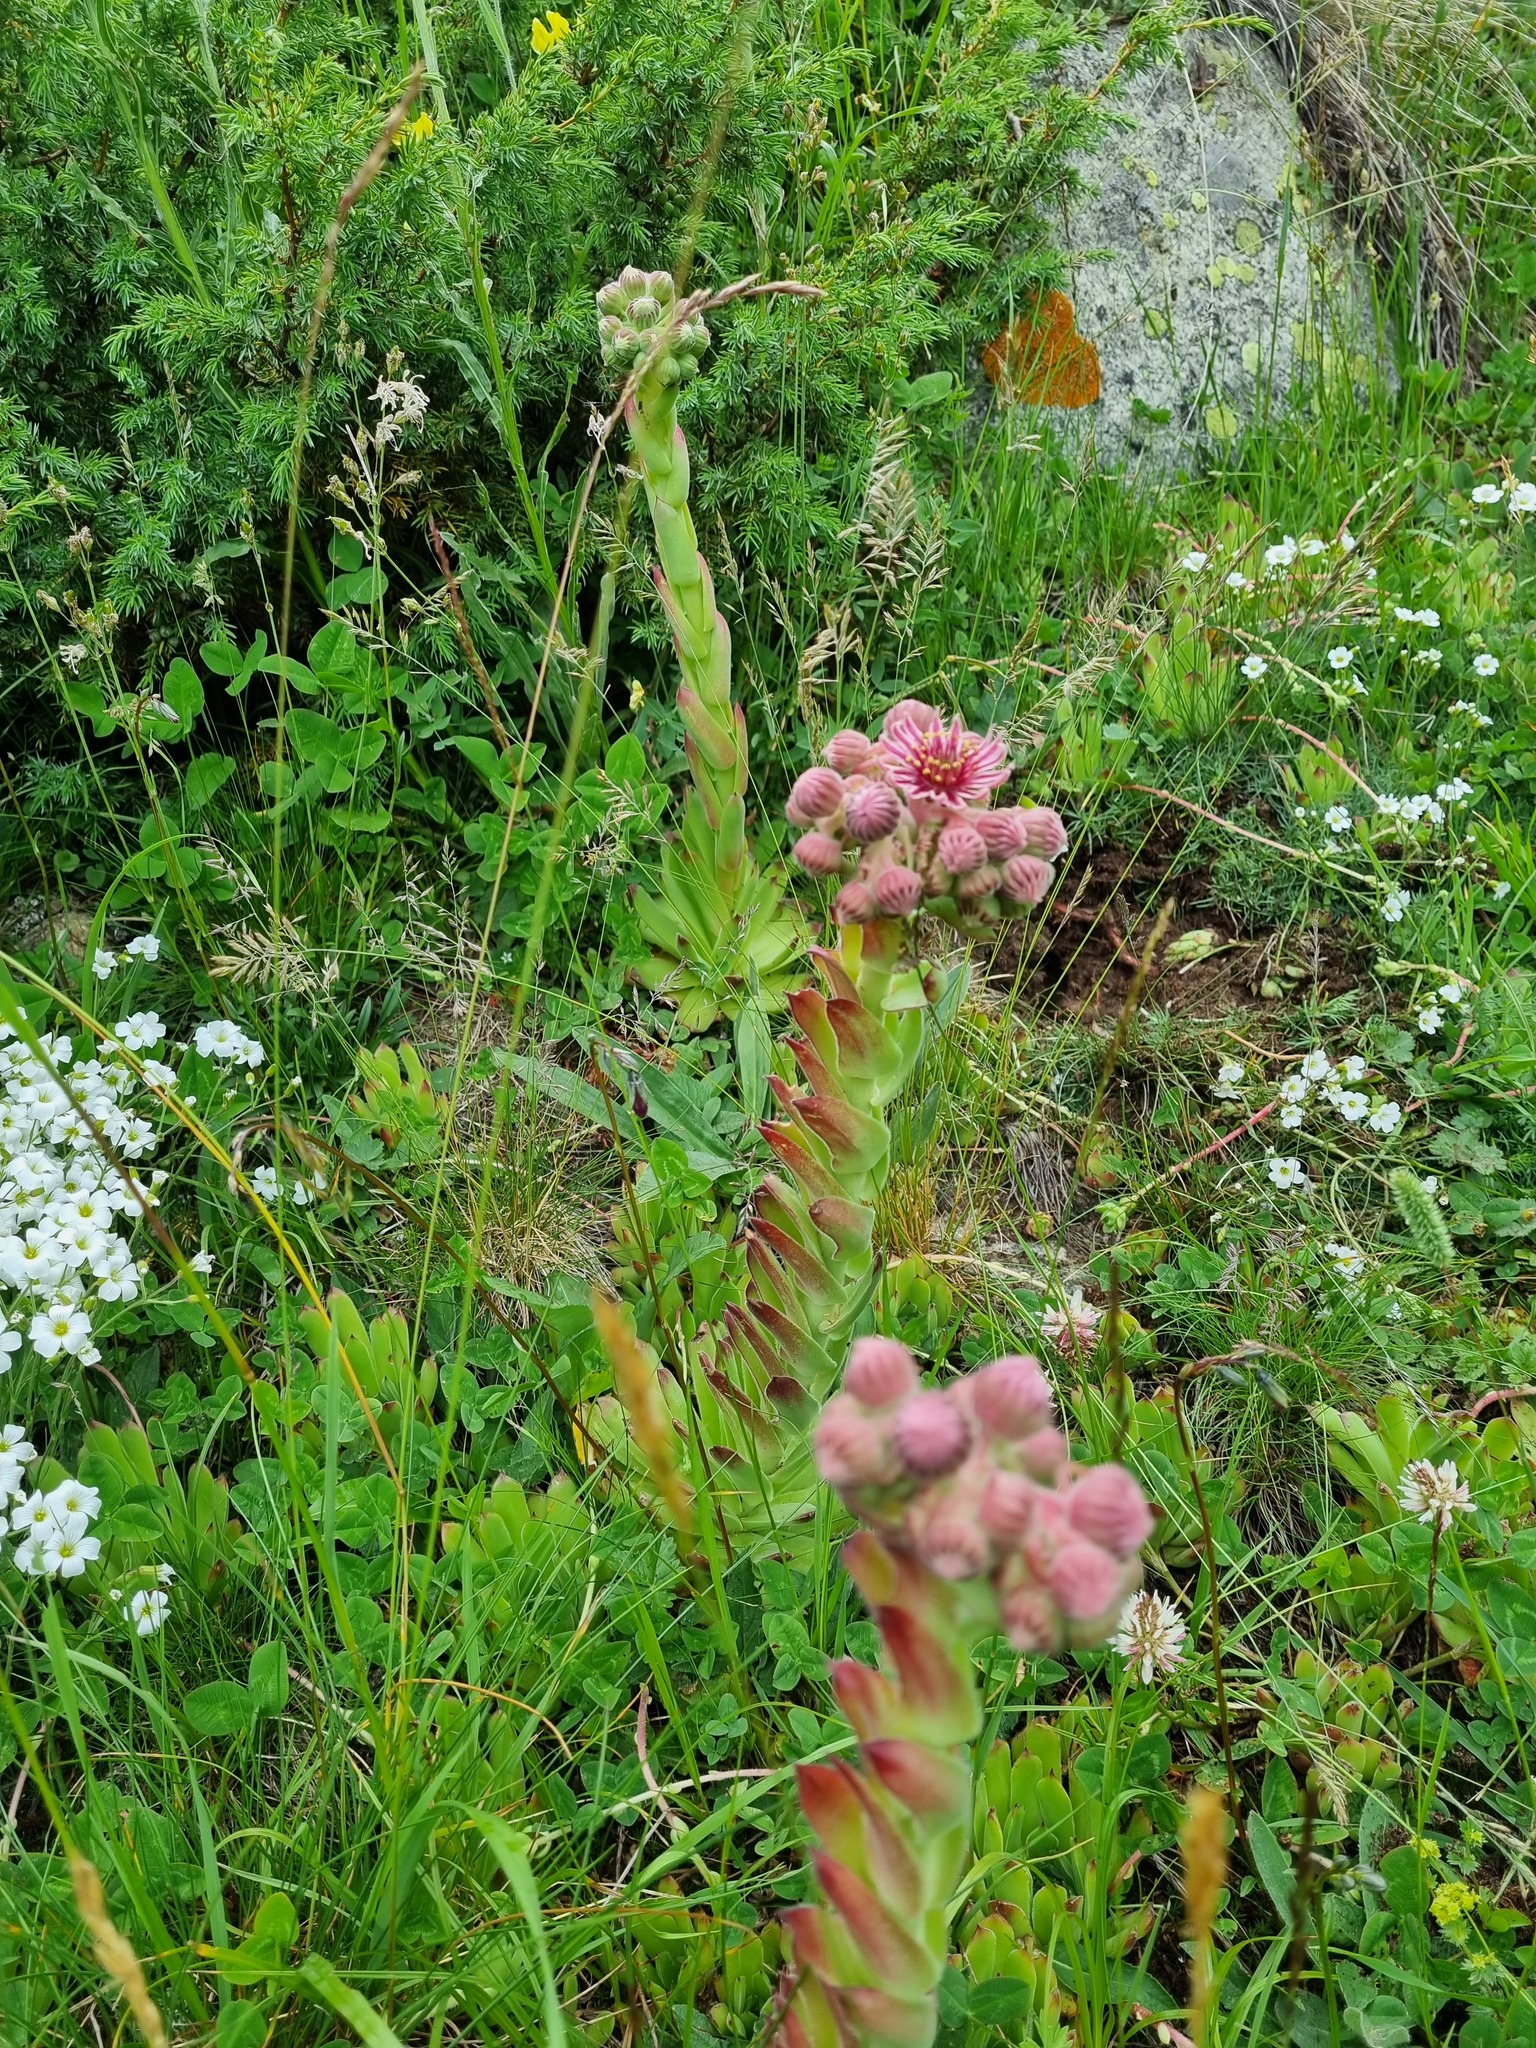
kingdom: Plantae
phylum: Tracheophyta
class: Magnoliopsida
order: Saxifragales
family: Crassulaceae
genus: Sempervivum
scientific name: Sempervivum caucasicum
